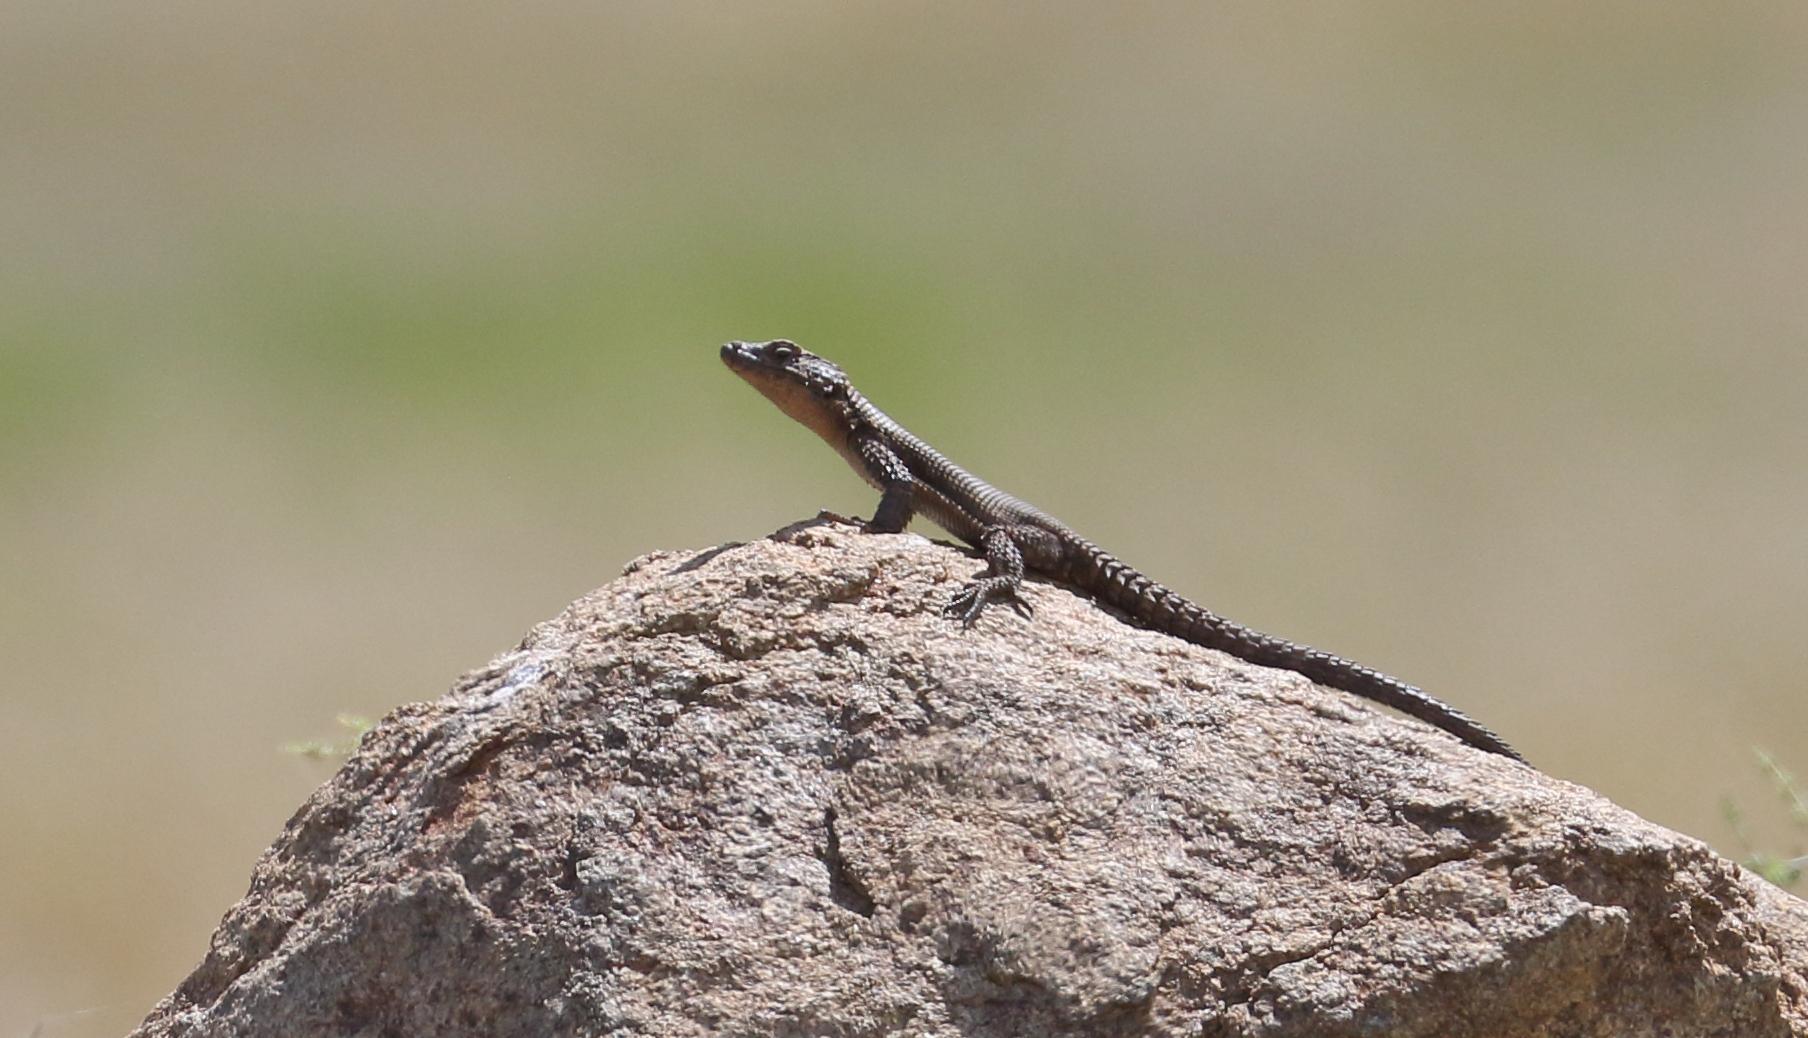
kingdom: Animalia
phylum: Chordata
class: Squamata
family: Cordylidae
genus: Karusasaurus
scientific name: Karusasaurus polyzonus
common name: Karoo girdled lizard
